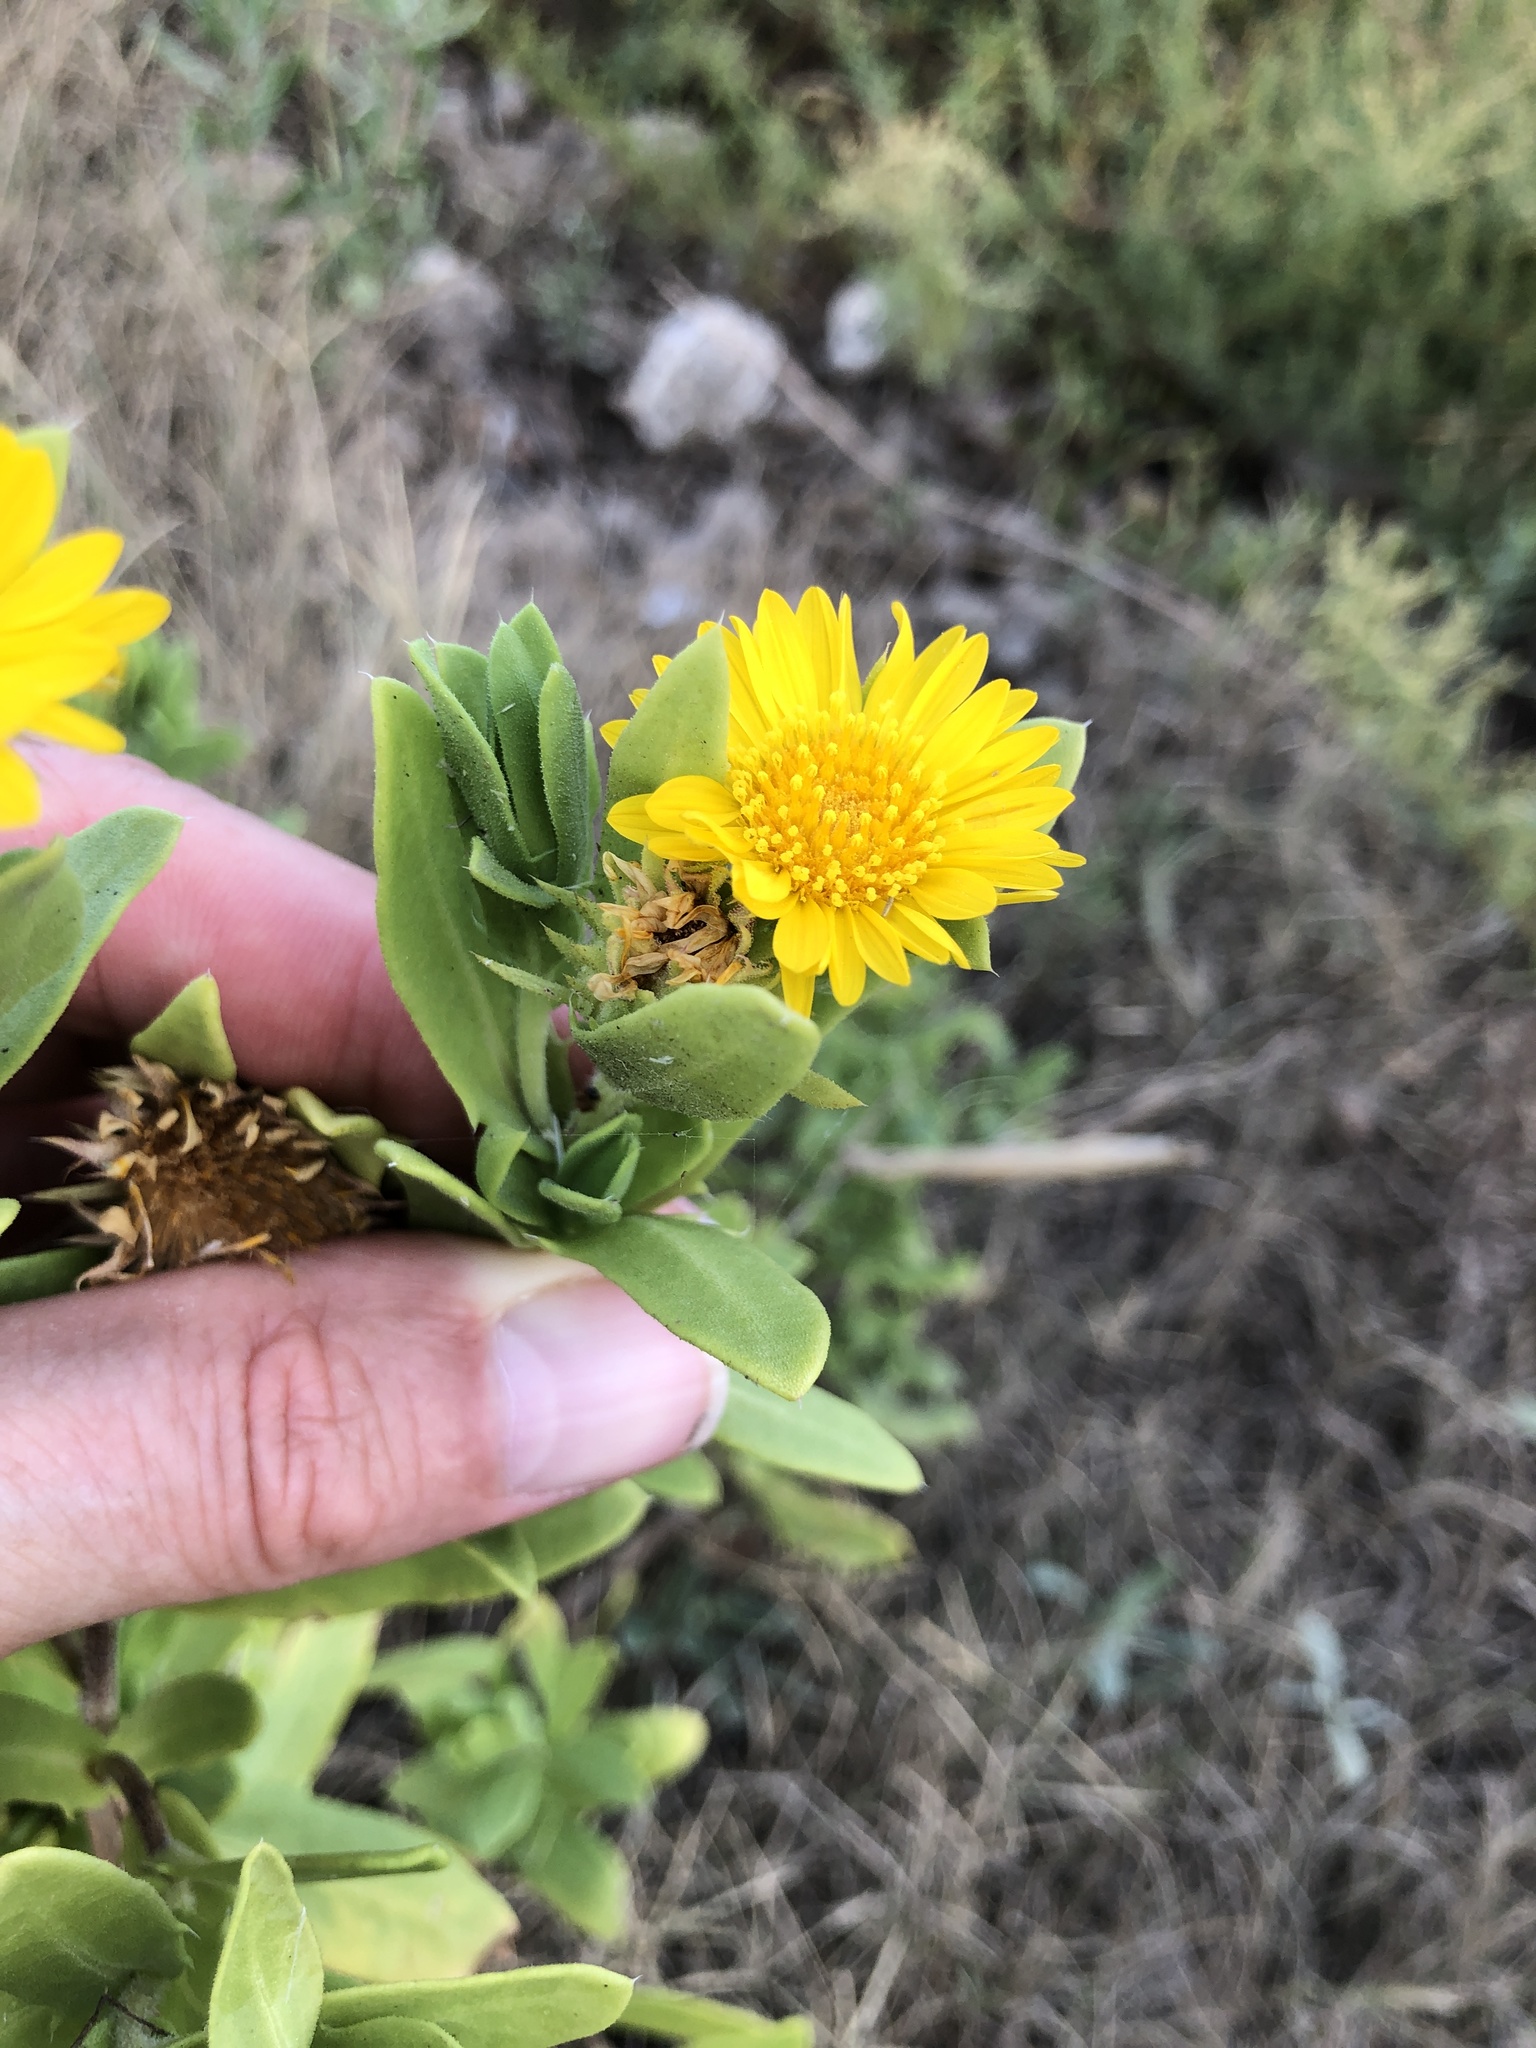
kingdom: Plantae
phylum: Tracheophyta
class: Magnoliopsida
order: Asterales
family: Asteraceae
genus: Rayjacksonia
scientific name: Rayjacksonia phyllocephala
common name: Gulf coast camphor daisy
